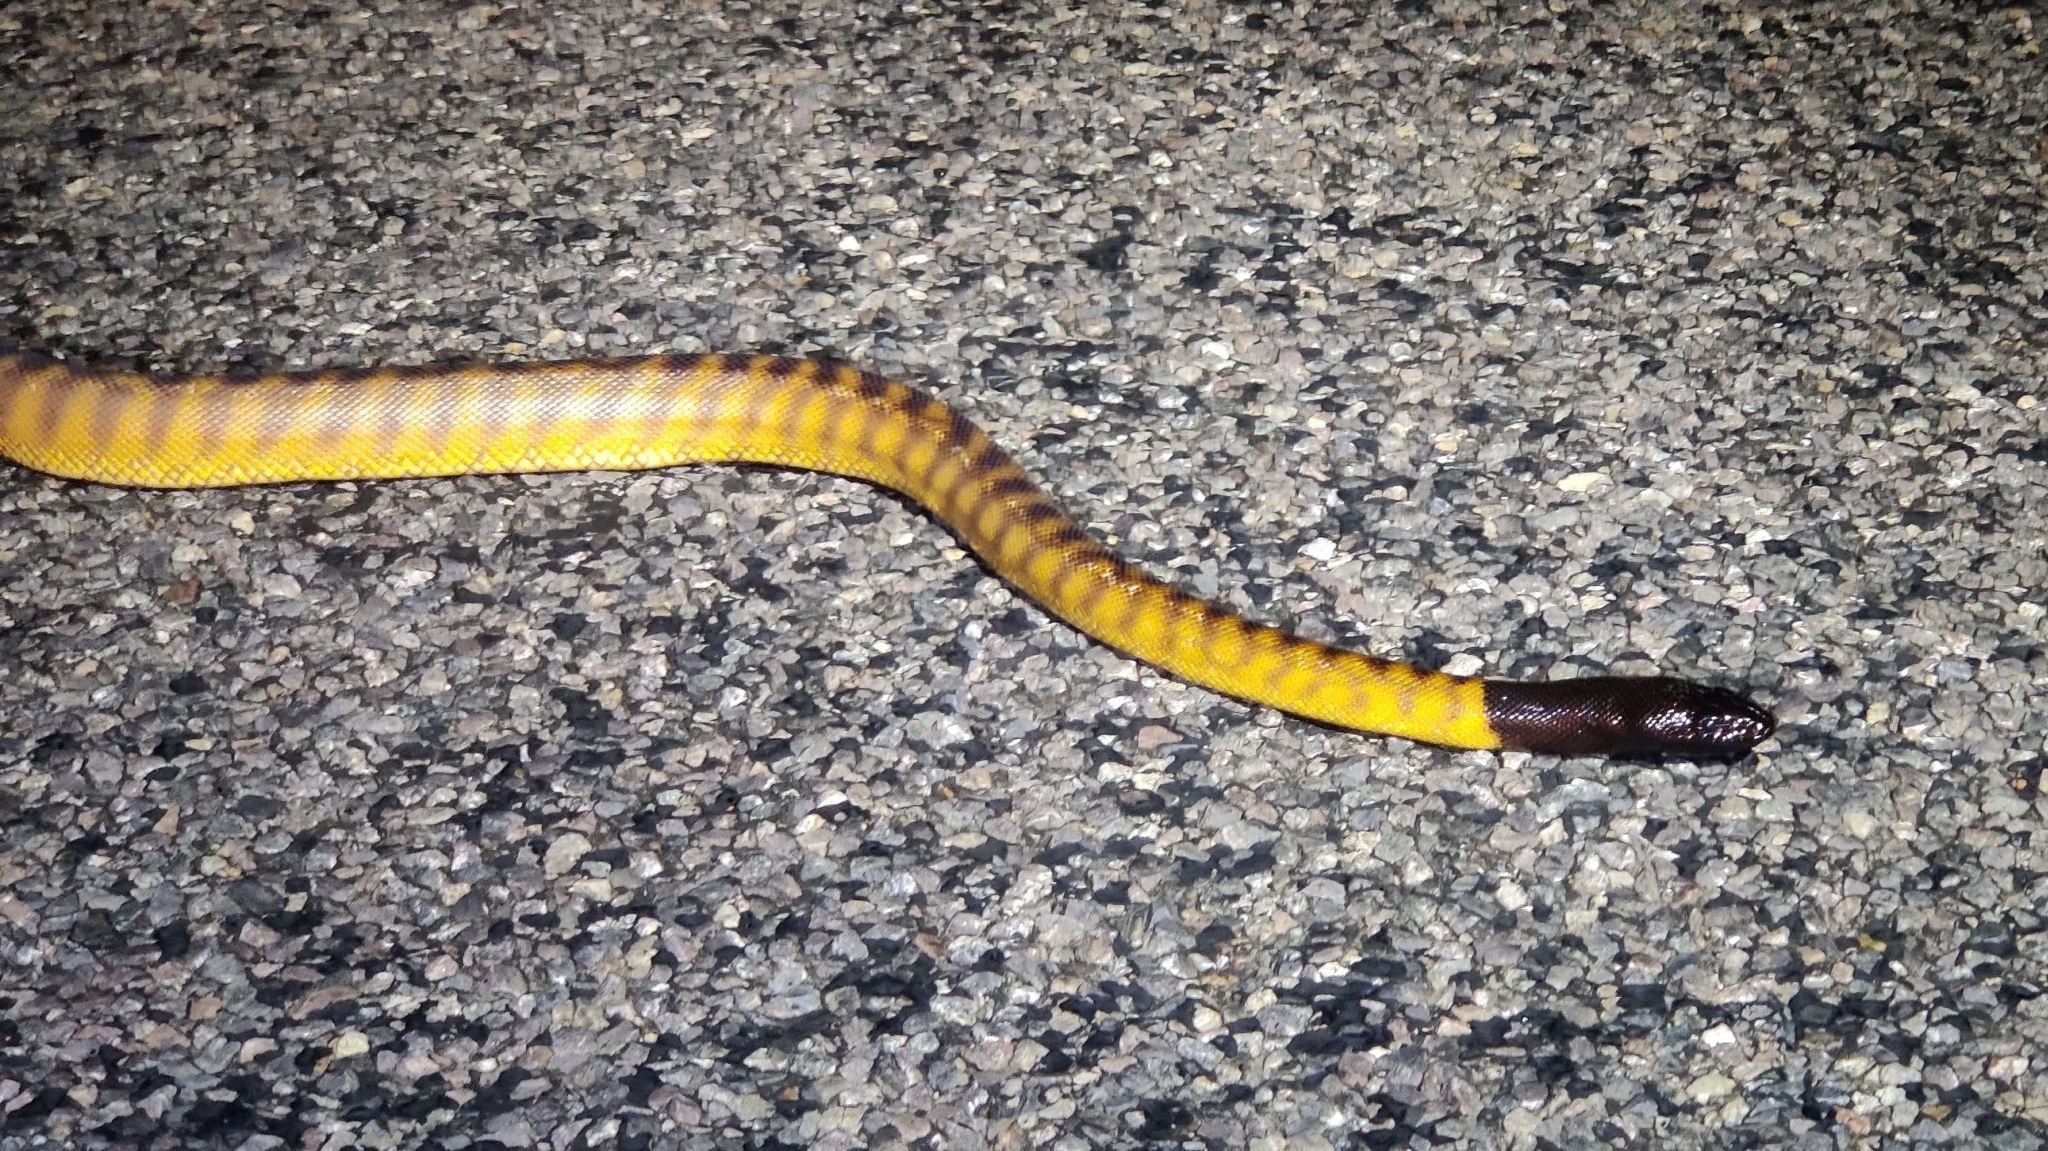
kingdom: Animalia
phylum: Chordata
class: Squamata
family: Pythonidae
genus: Aspidites
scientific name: Aspidites melanocephalus
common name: Black-headed python
